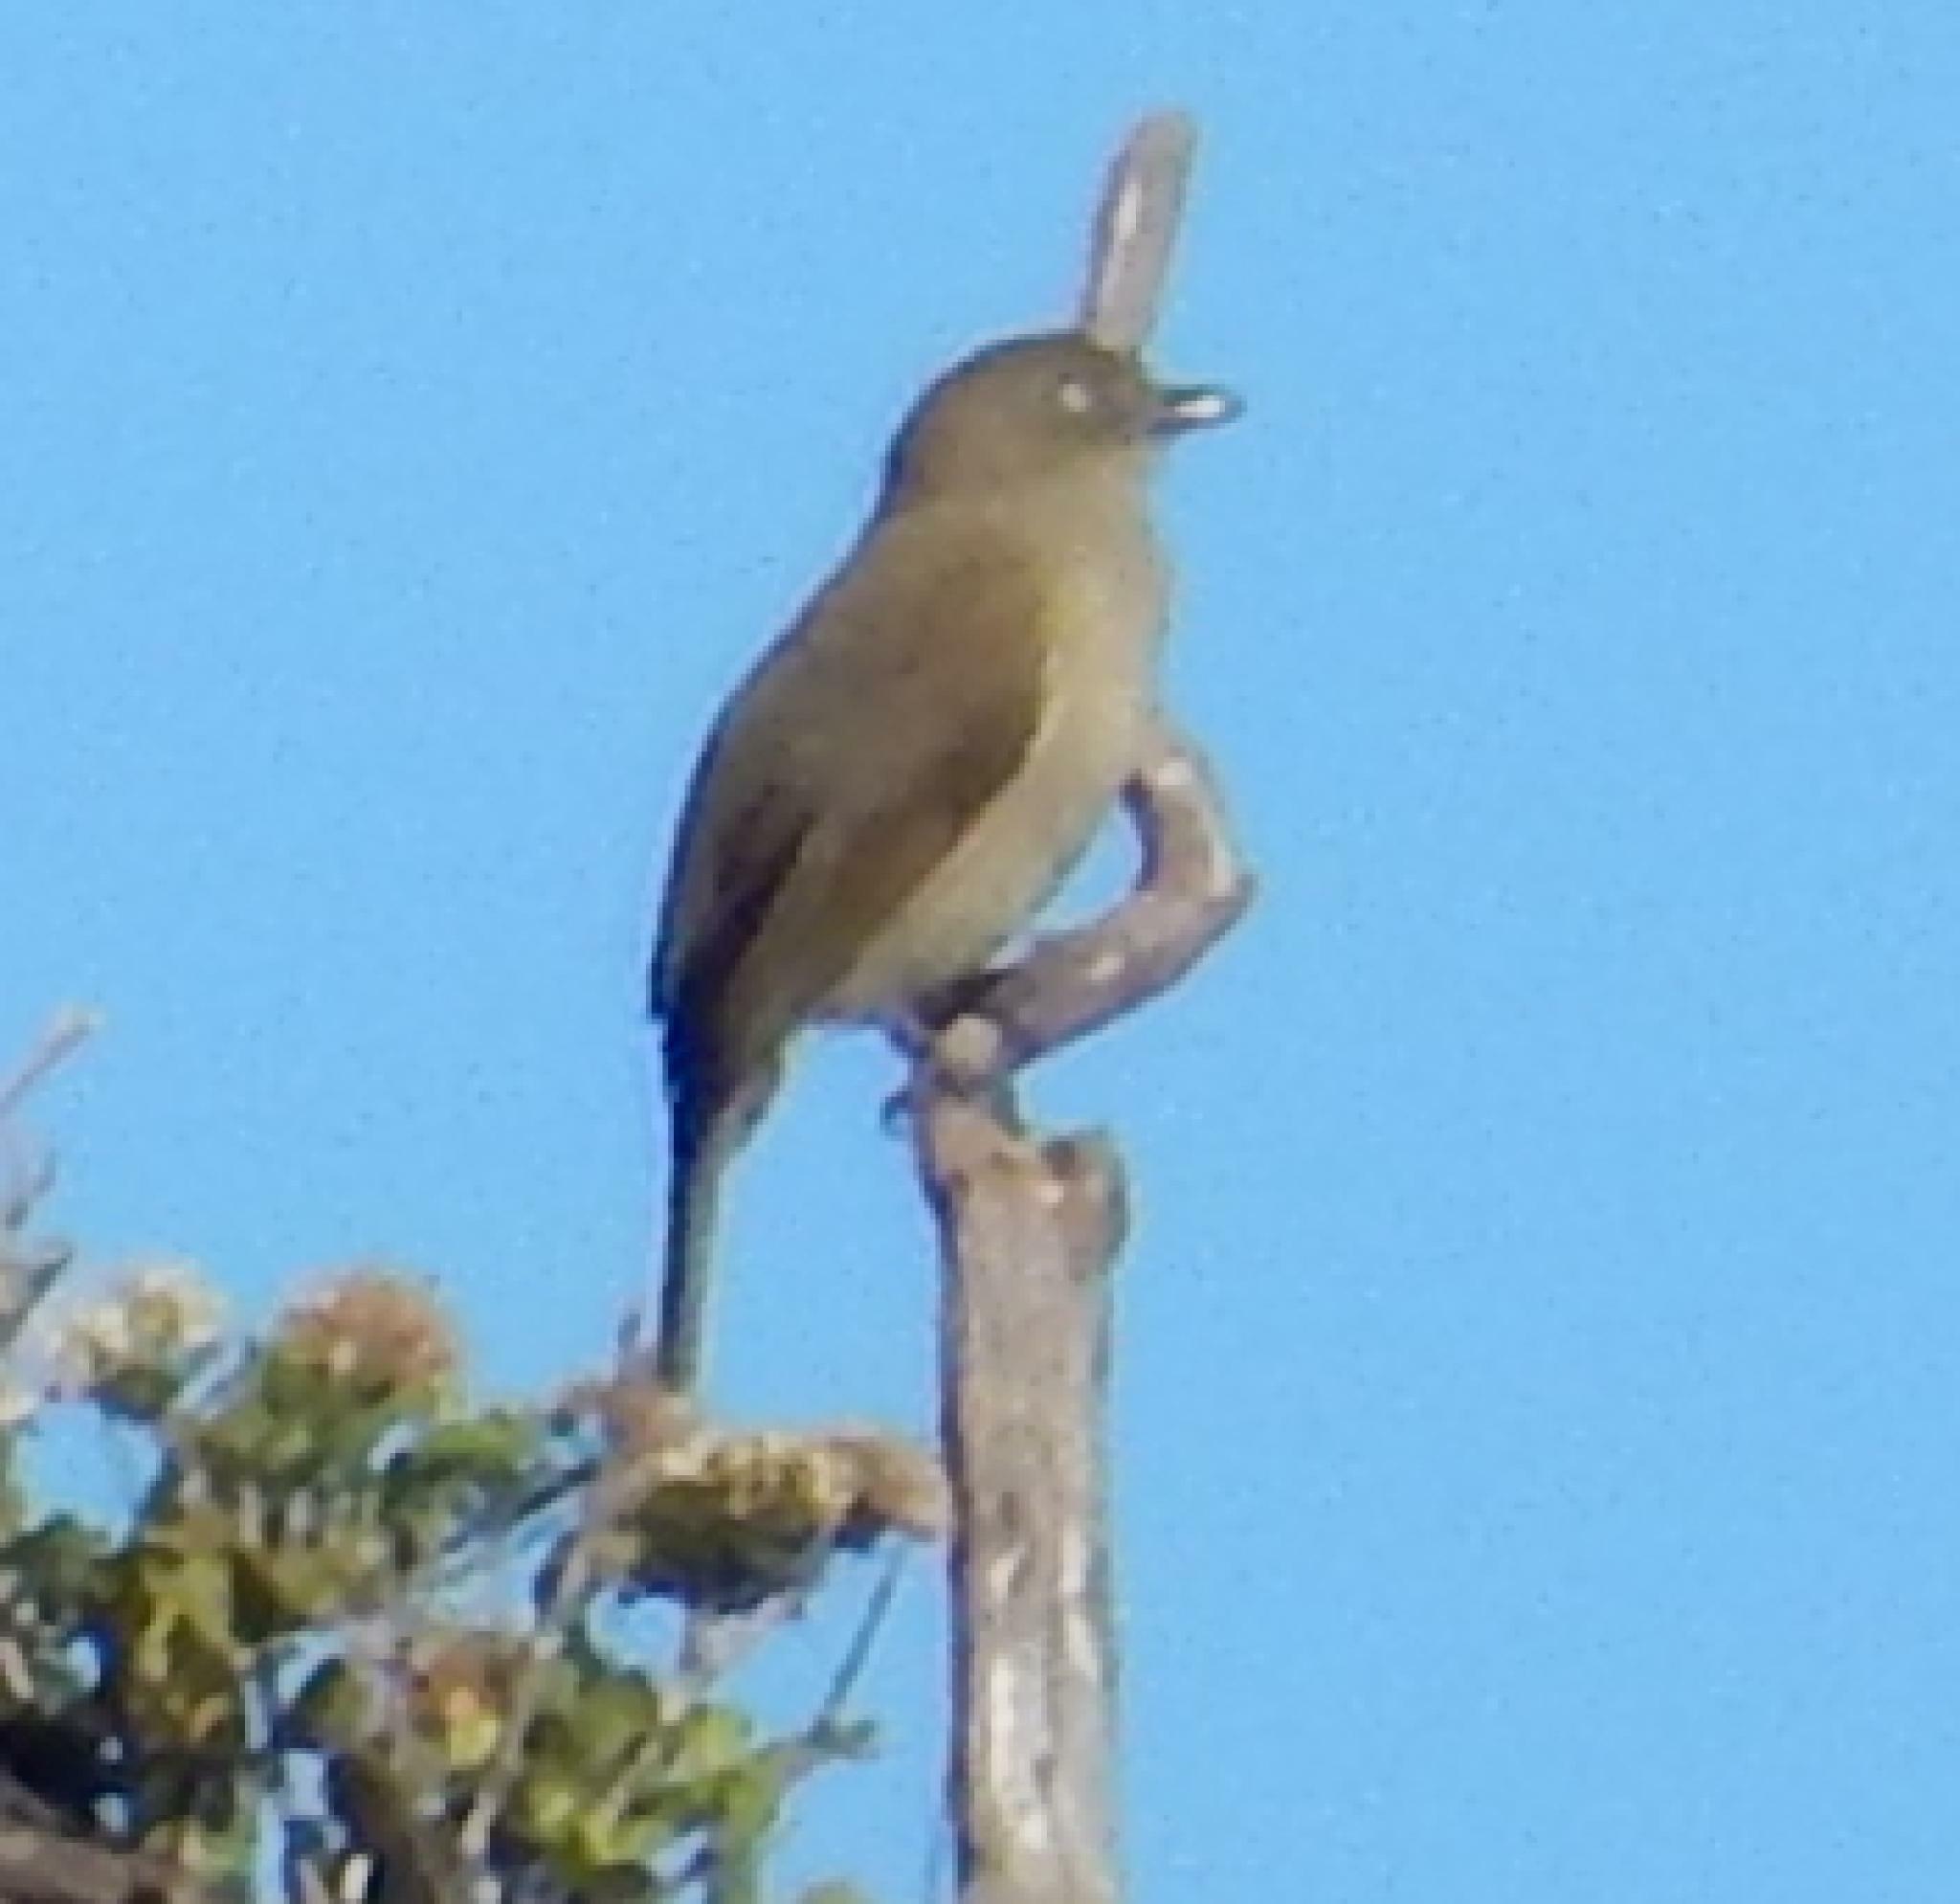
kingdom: Animalia
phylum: Chordata
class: Aves
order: Passeriformes
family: Pycnonotidae
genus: Andropadus
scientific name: Andropadus importunus
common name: Sombre greenbul
